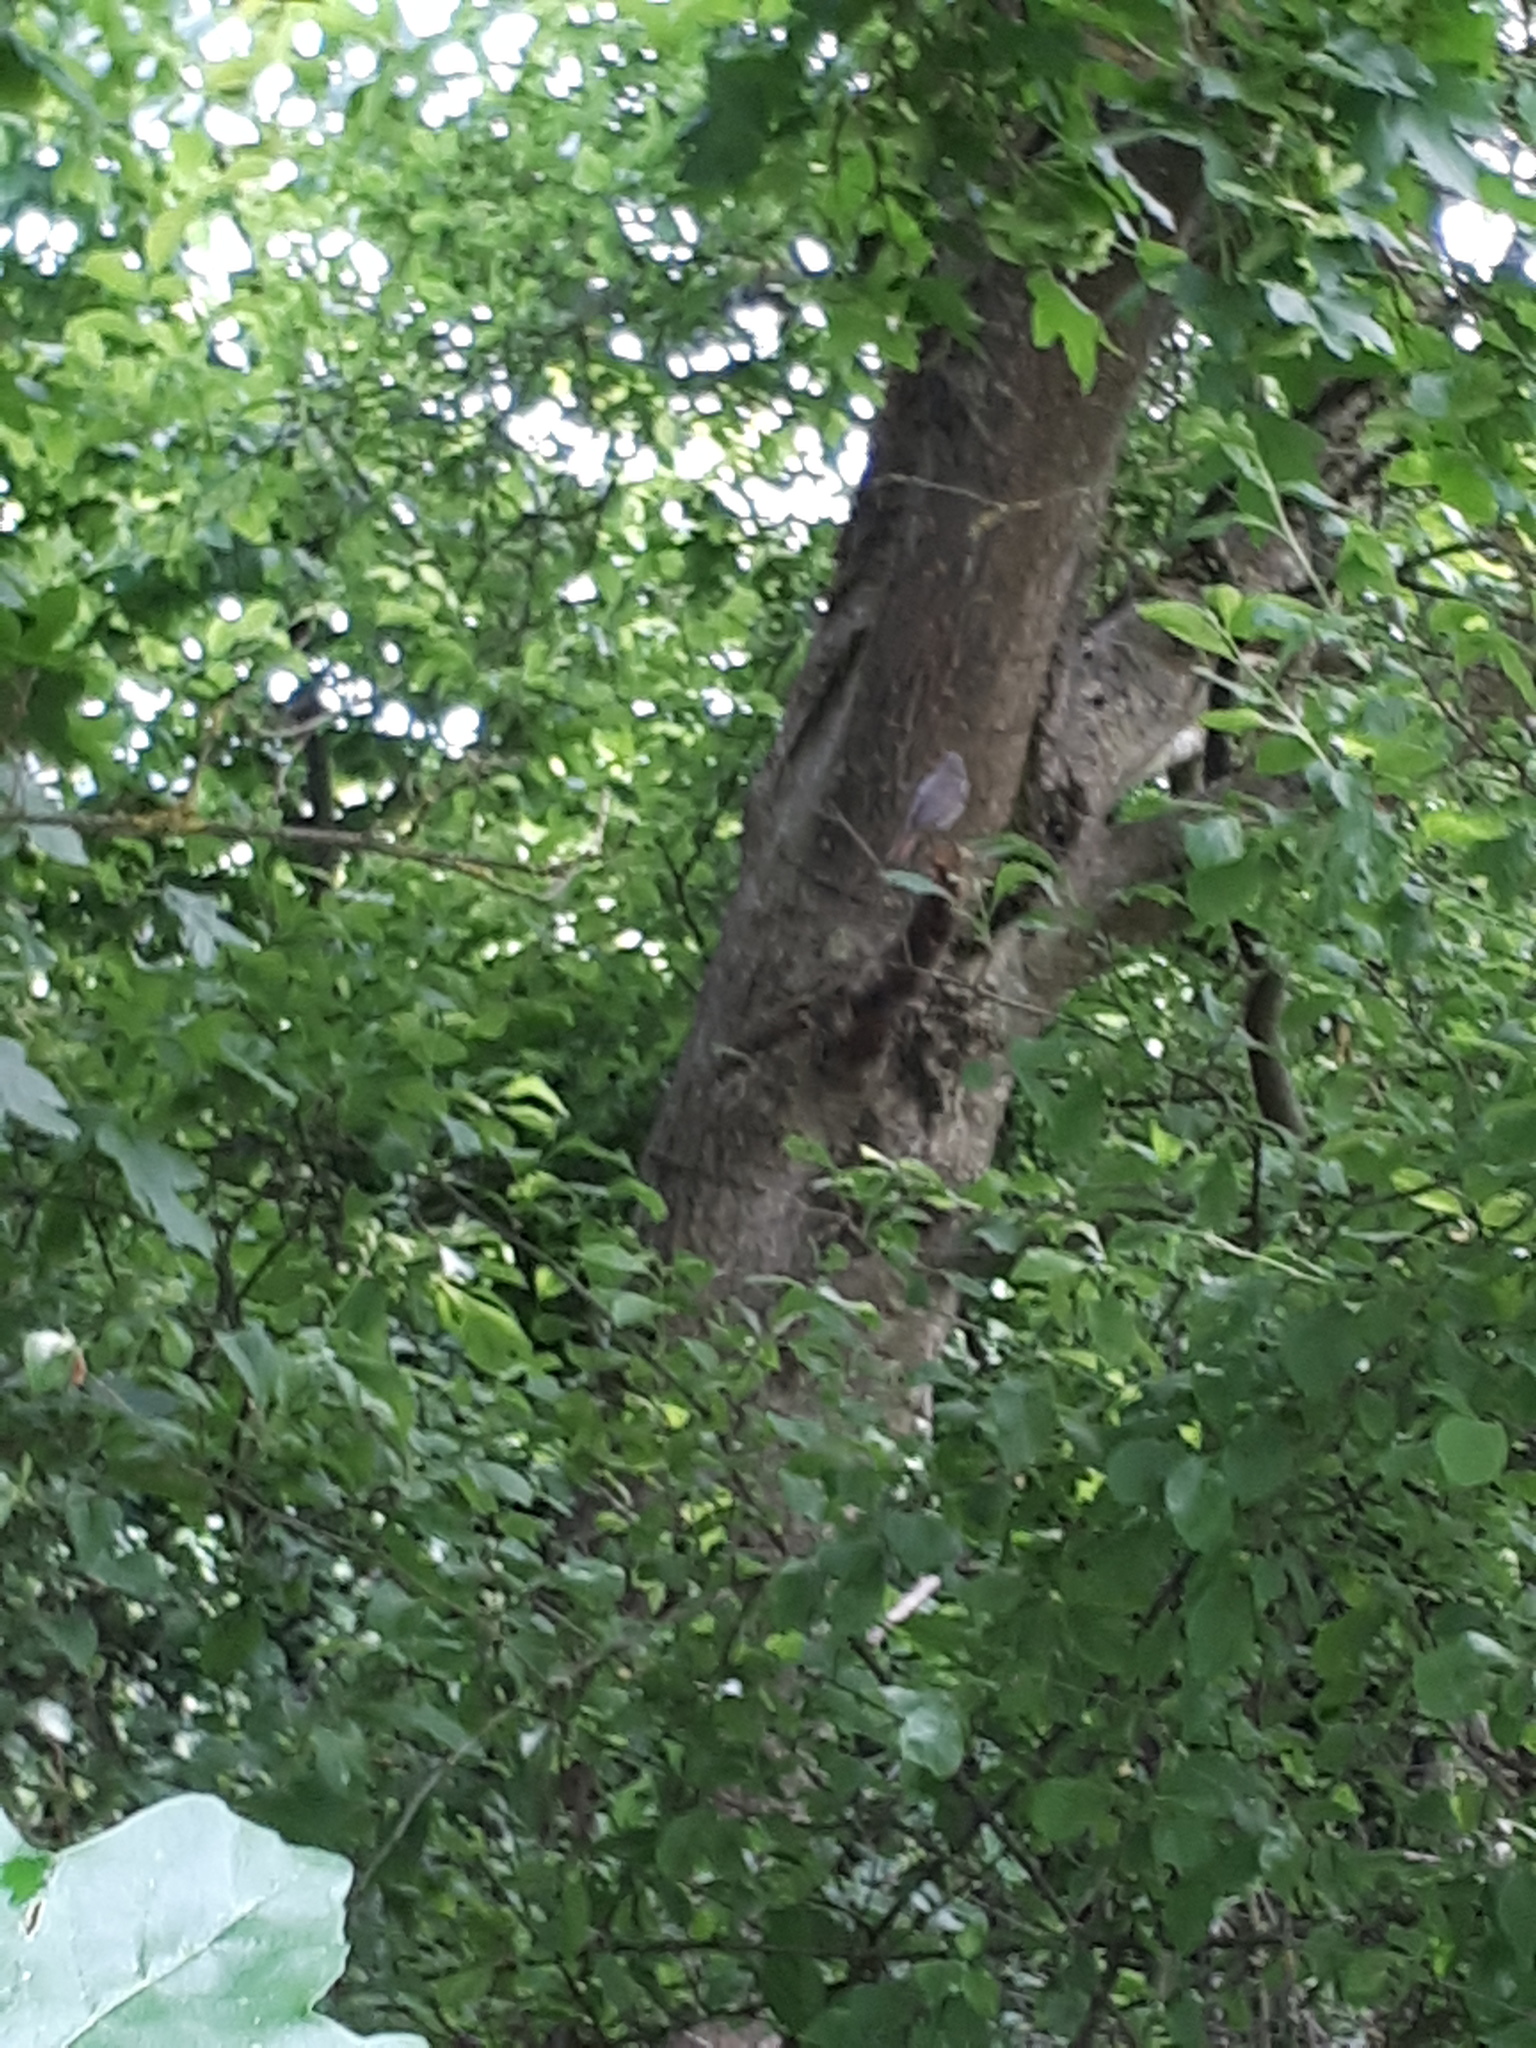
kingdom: Animalia
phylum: Chordata
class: Aves
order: Passeriformes
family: Muscicapidae
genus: Phoenicurus
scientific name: Phoenicurus ochruros
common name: Black redstart
